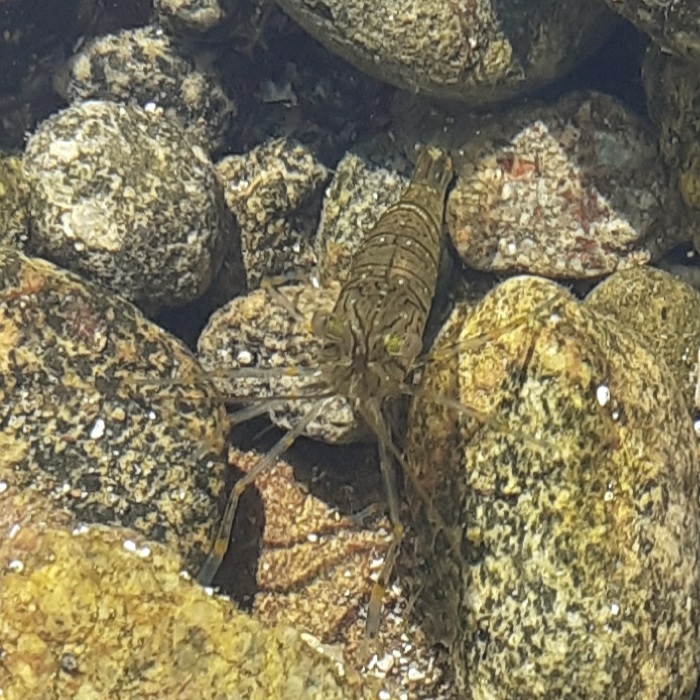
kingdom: Animalia
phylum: Arthropoda
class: Malacostraca
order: Decapoda
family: Palaemonidae
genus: Palaemon
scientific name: Palaemon elegans
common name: Grass prawm
